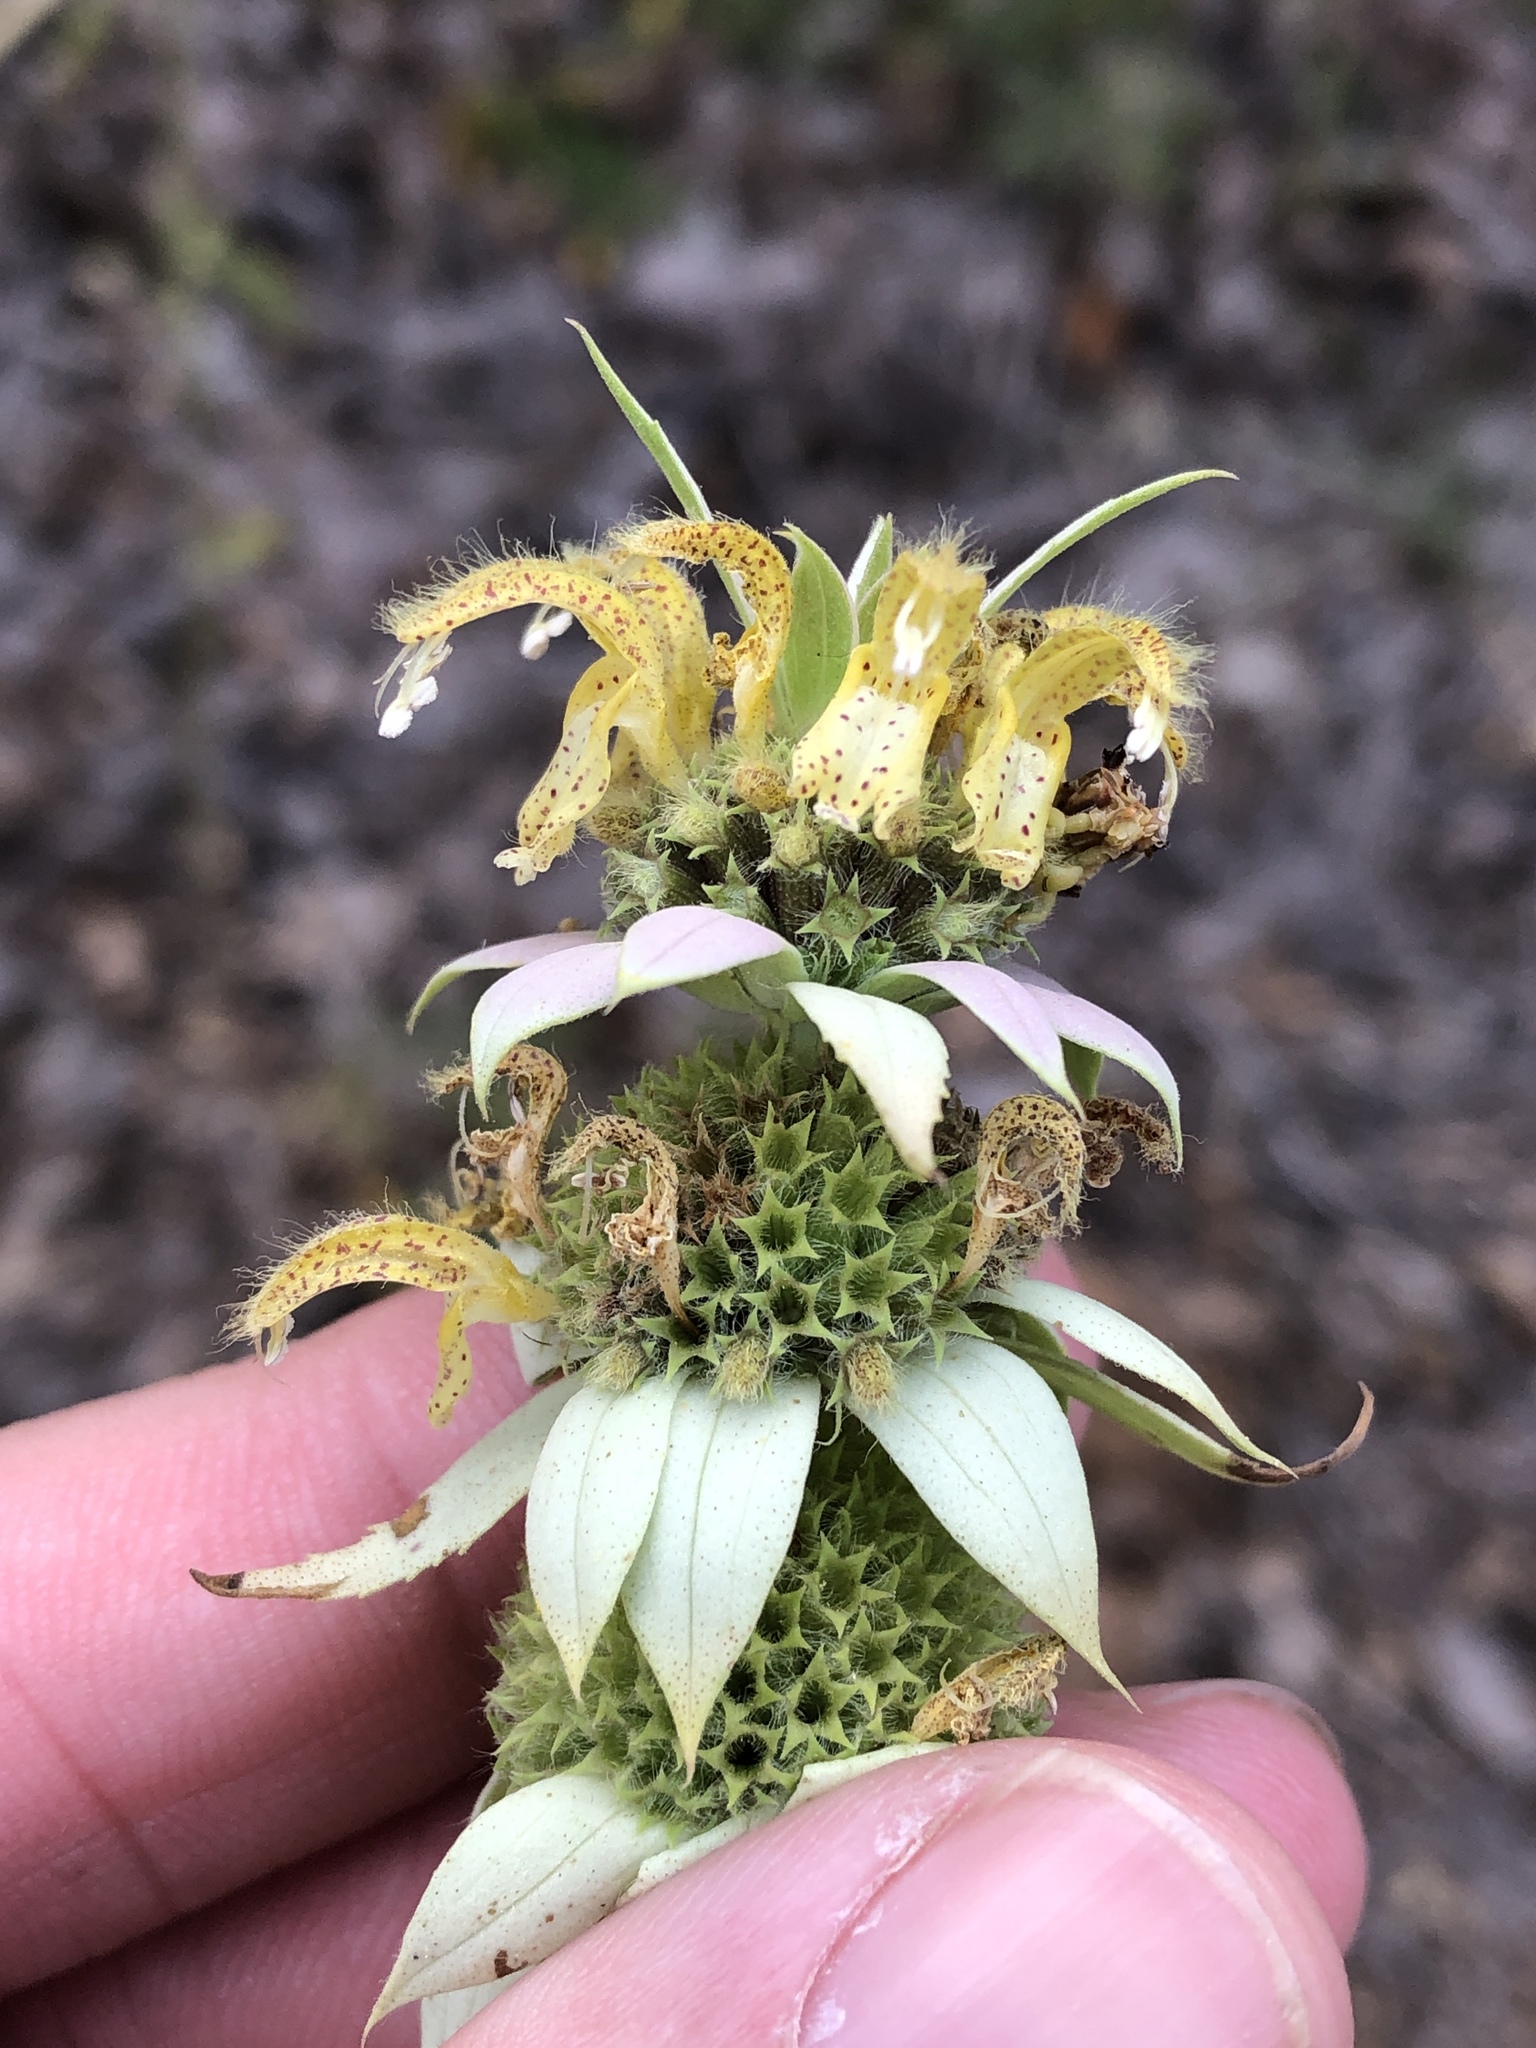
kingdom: Plantae
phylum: Tracheophyta
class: Magnoliopsida
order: Lamiales
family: Lamiaceae
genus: Monarda
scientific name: Monarda punctata
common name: Dotted monarda
